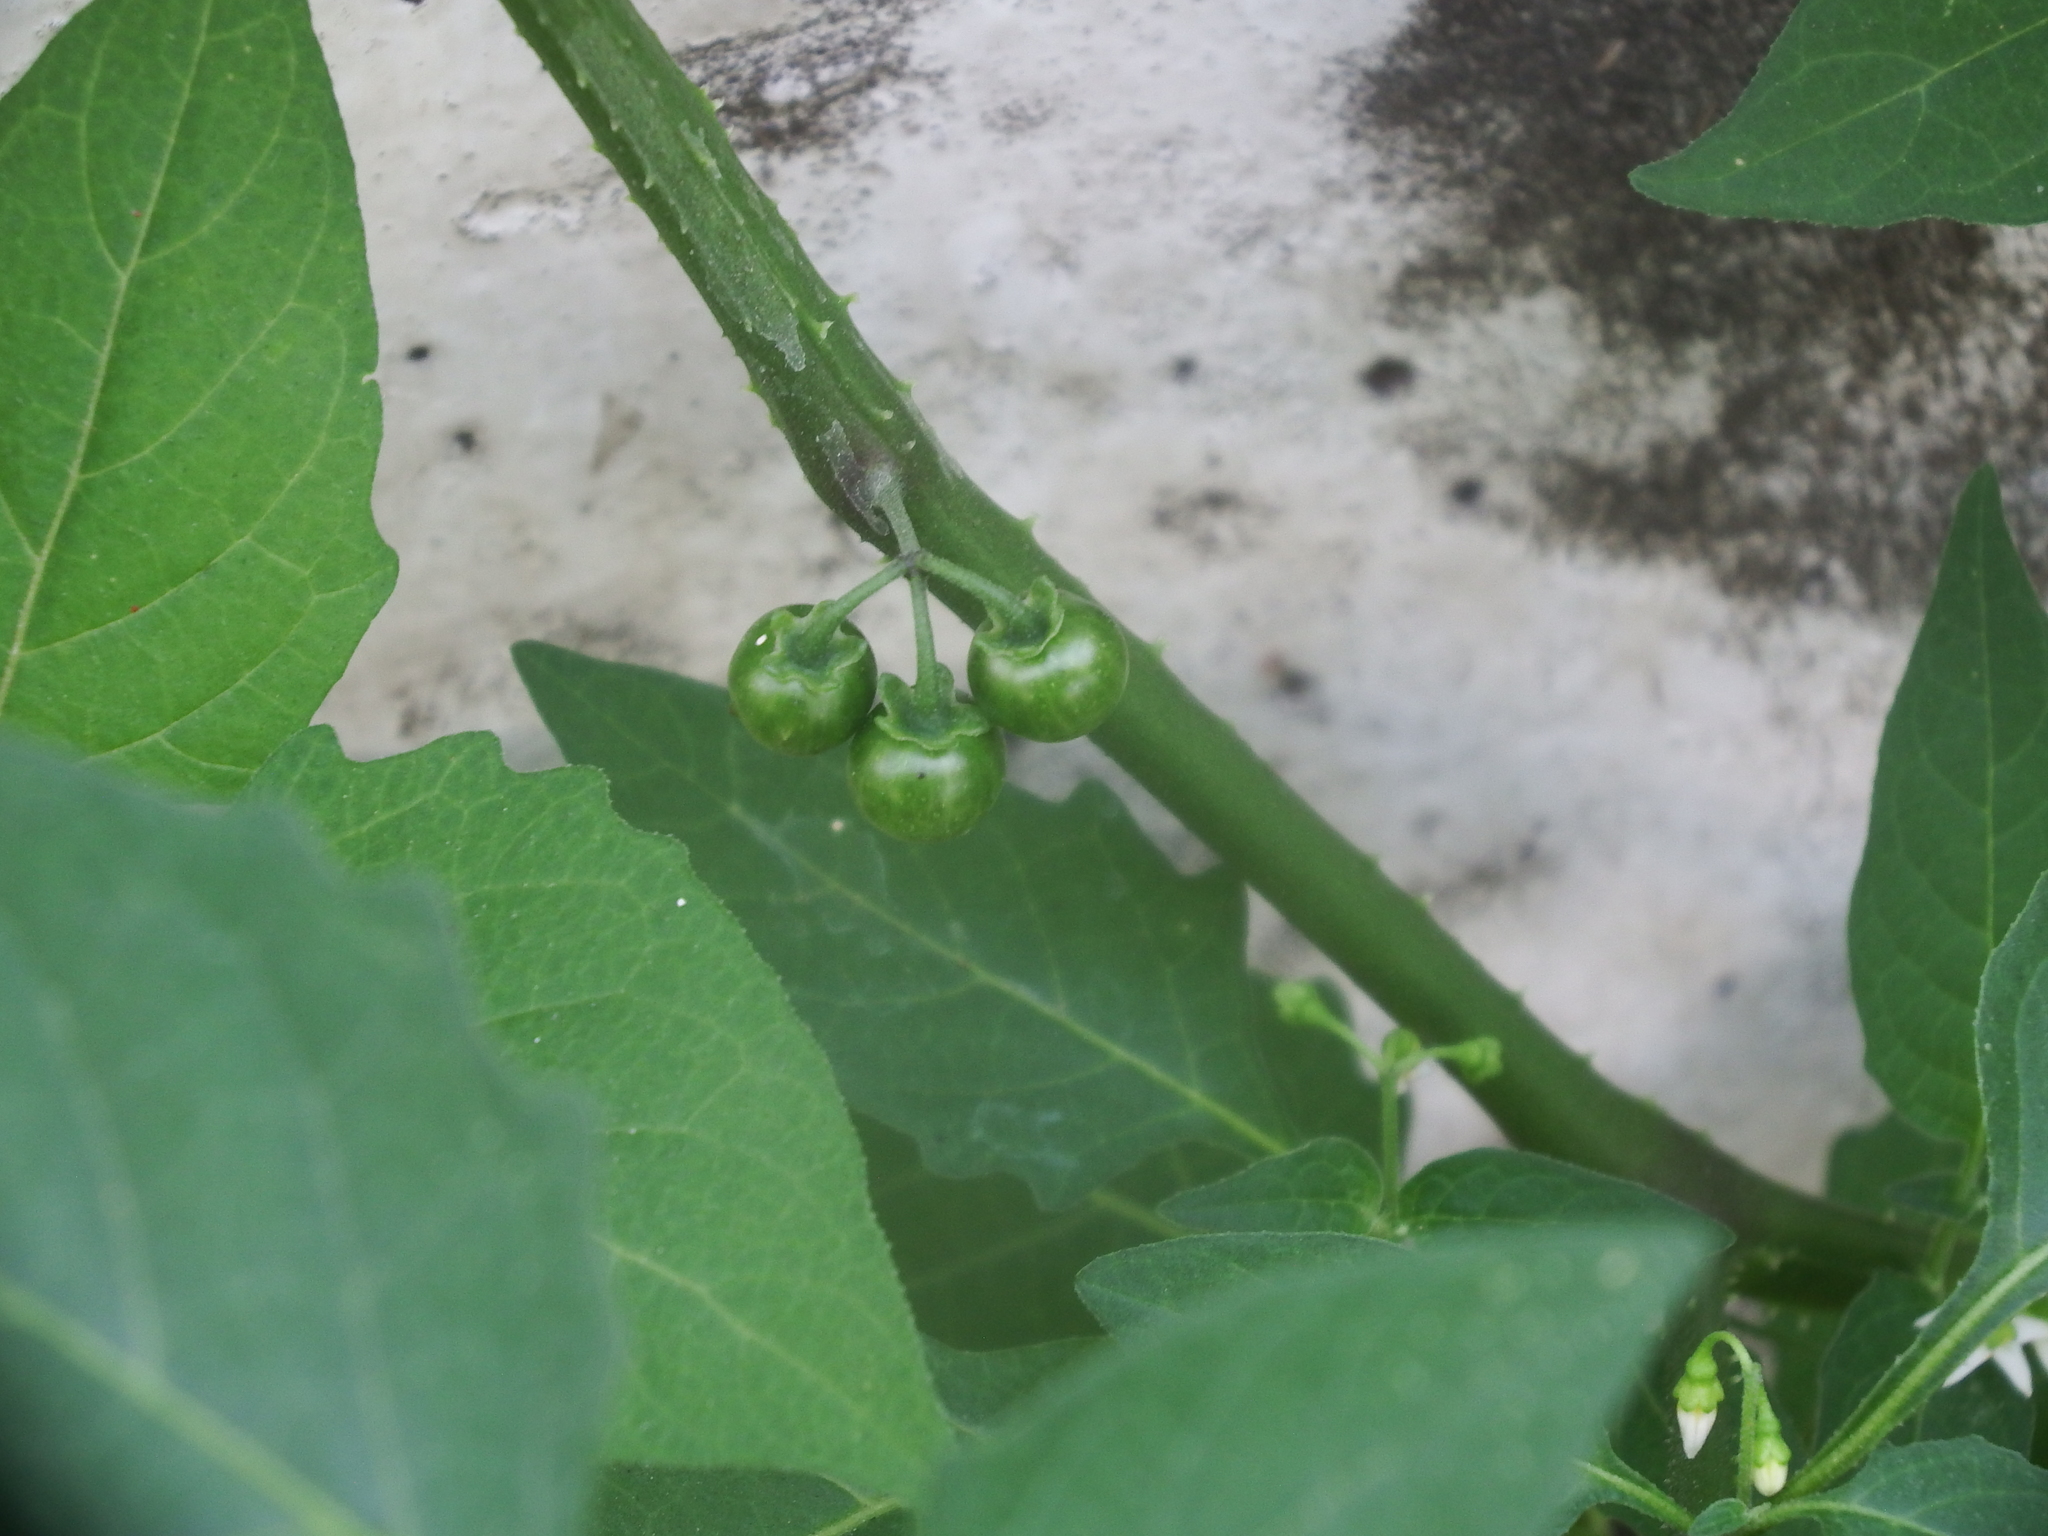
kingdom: Plantae
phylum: Tracheophyta
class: Magnoliopsida
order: Solanales
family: Solanaceae
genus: Solanum
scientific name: Solanum americanum
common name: American black nightshade
